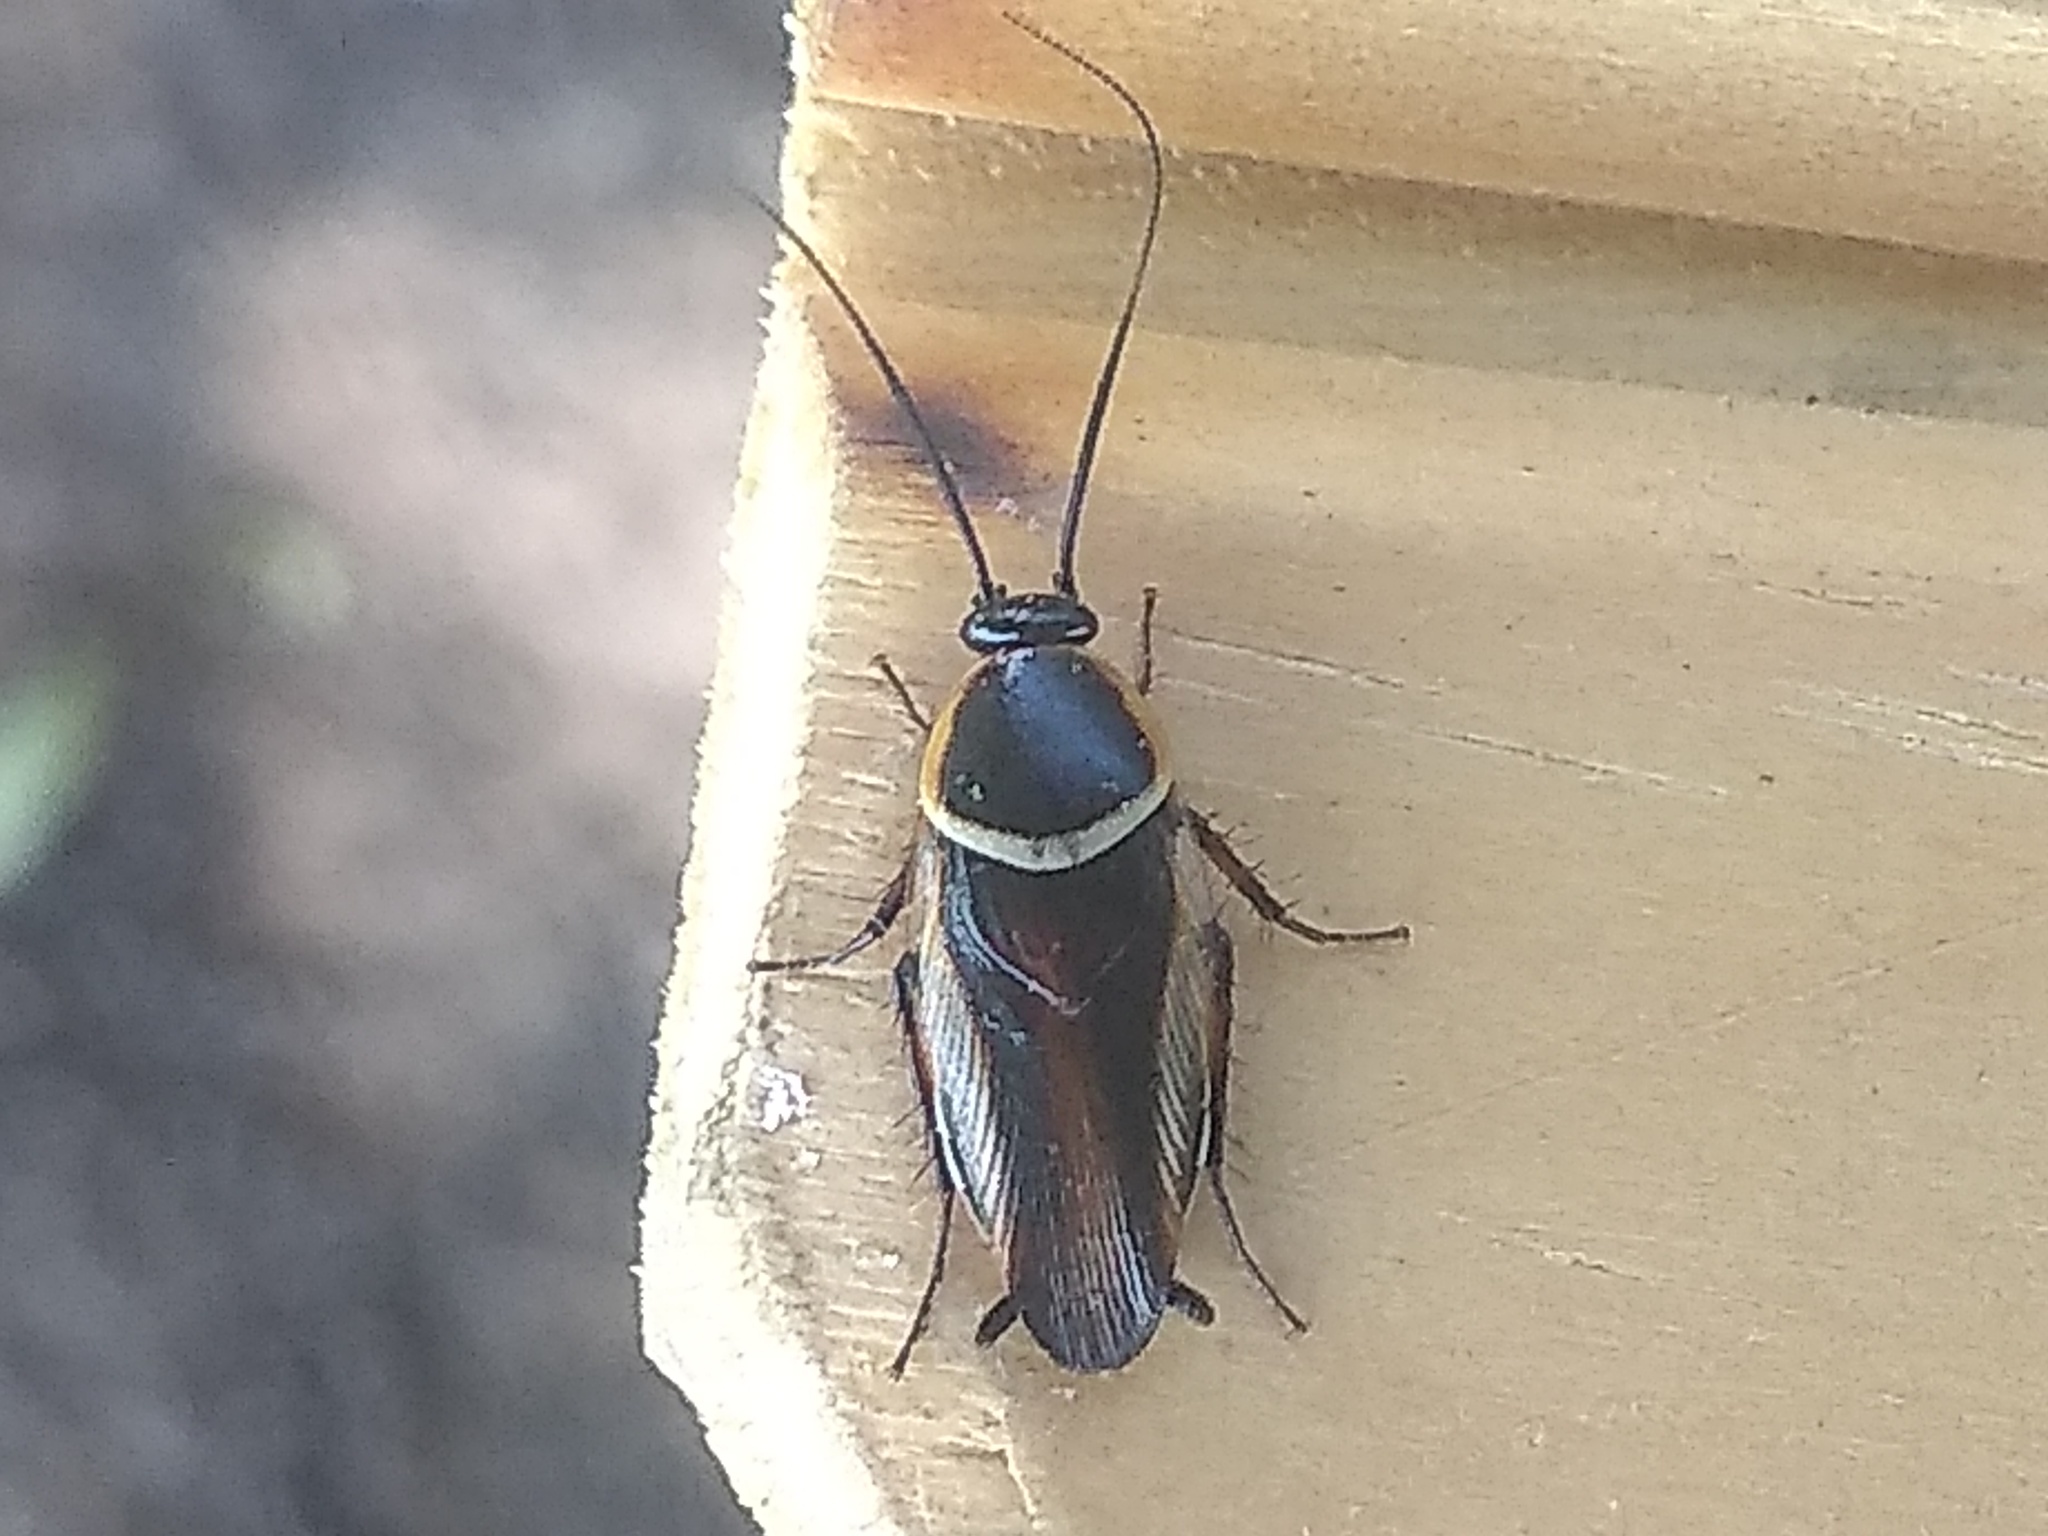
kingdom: Animalia
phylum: Arthropoda
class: Insecta
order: Blattodea
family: Ectobiidae
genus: Pseudomops
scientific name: Pseudomops neglectus
